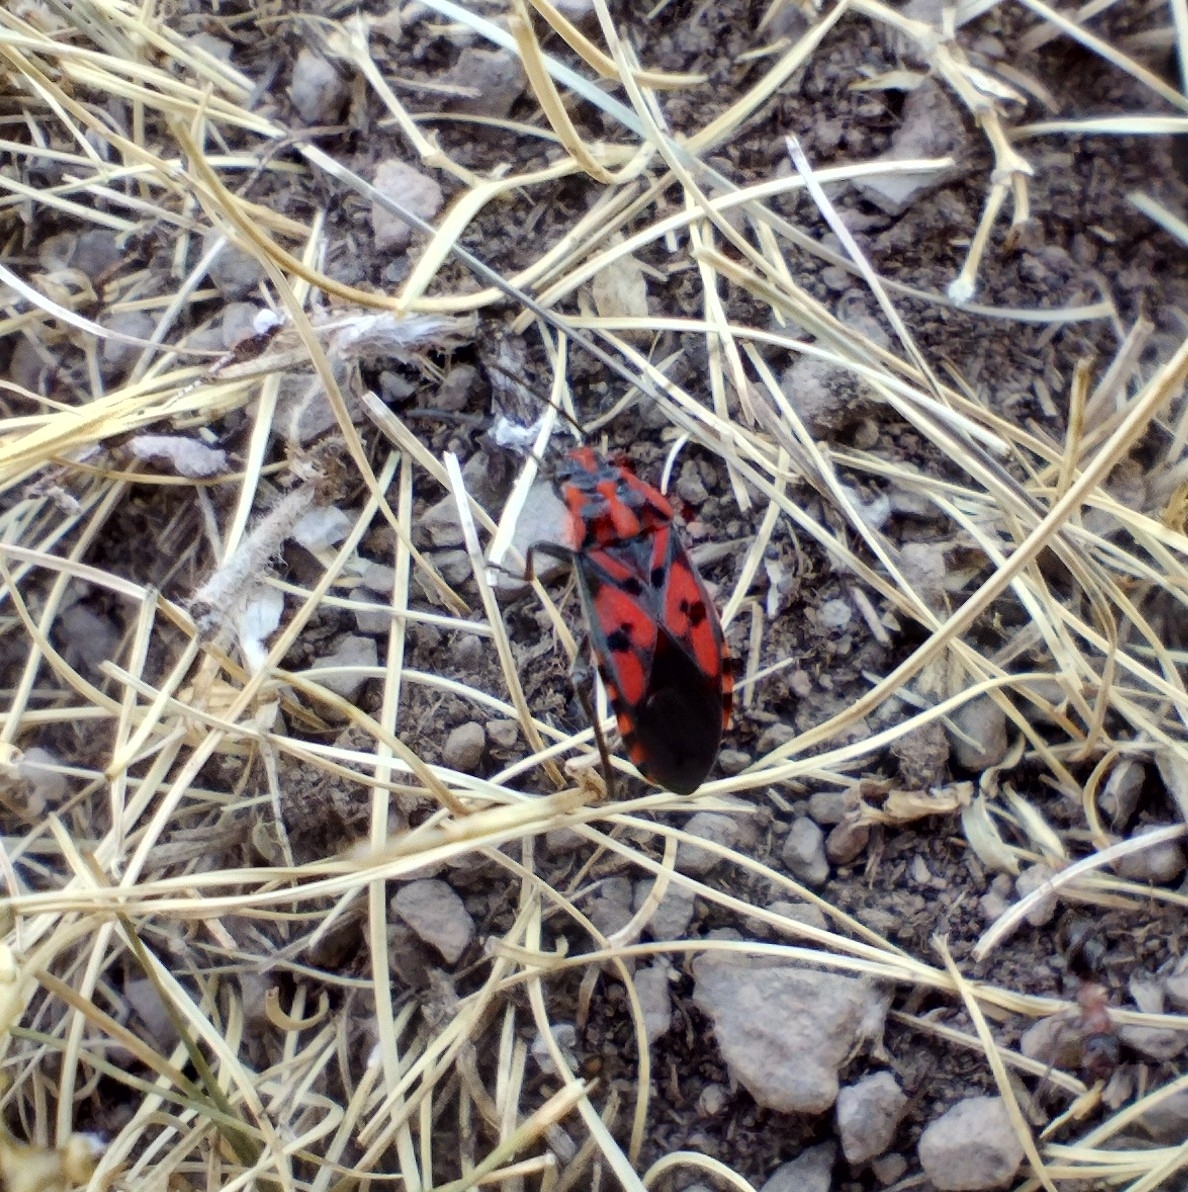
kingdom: Animalia
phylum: Arthropoda
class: Insecta
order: Hemiptera
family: Lygaeidae
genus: Spilostethus
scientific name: Spilostethus saxatilis
